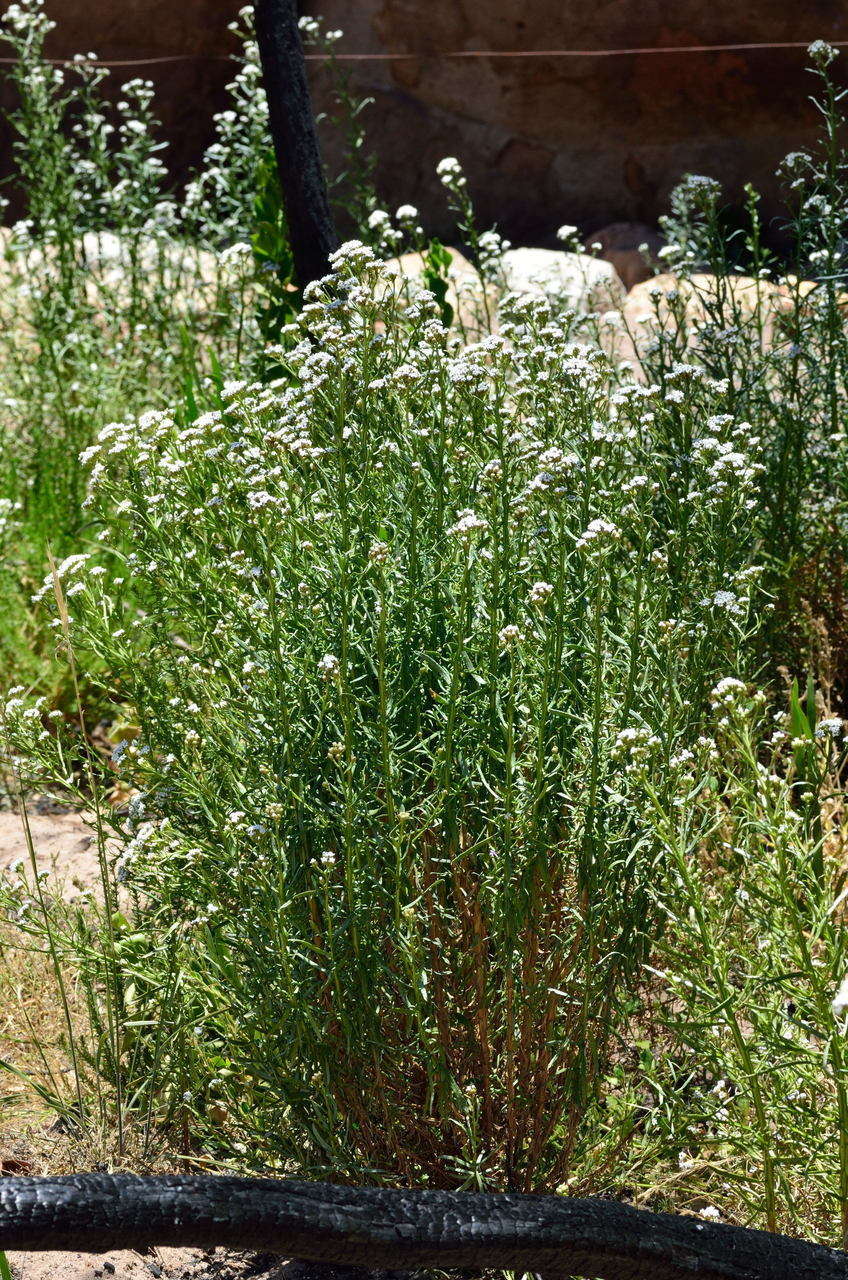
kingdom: Plantae
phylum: Tracheophyta
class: Magnoliopsida
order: Asterales
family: Asteraceae
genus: Ixodia
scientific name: Ixodia achillaeoides
